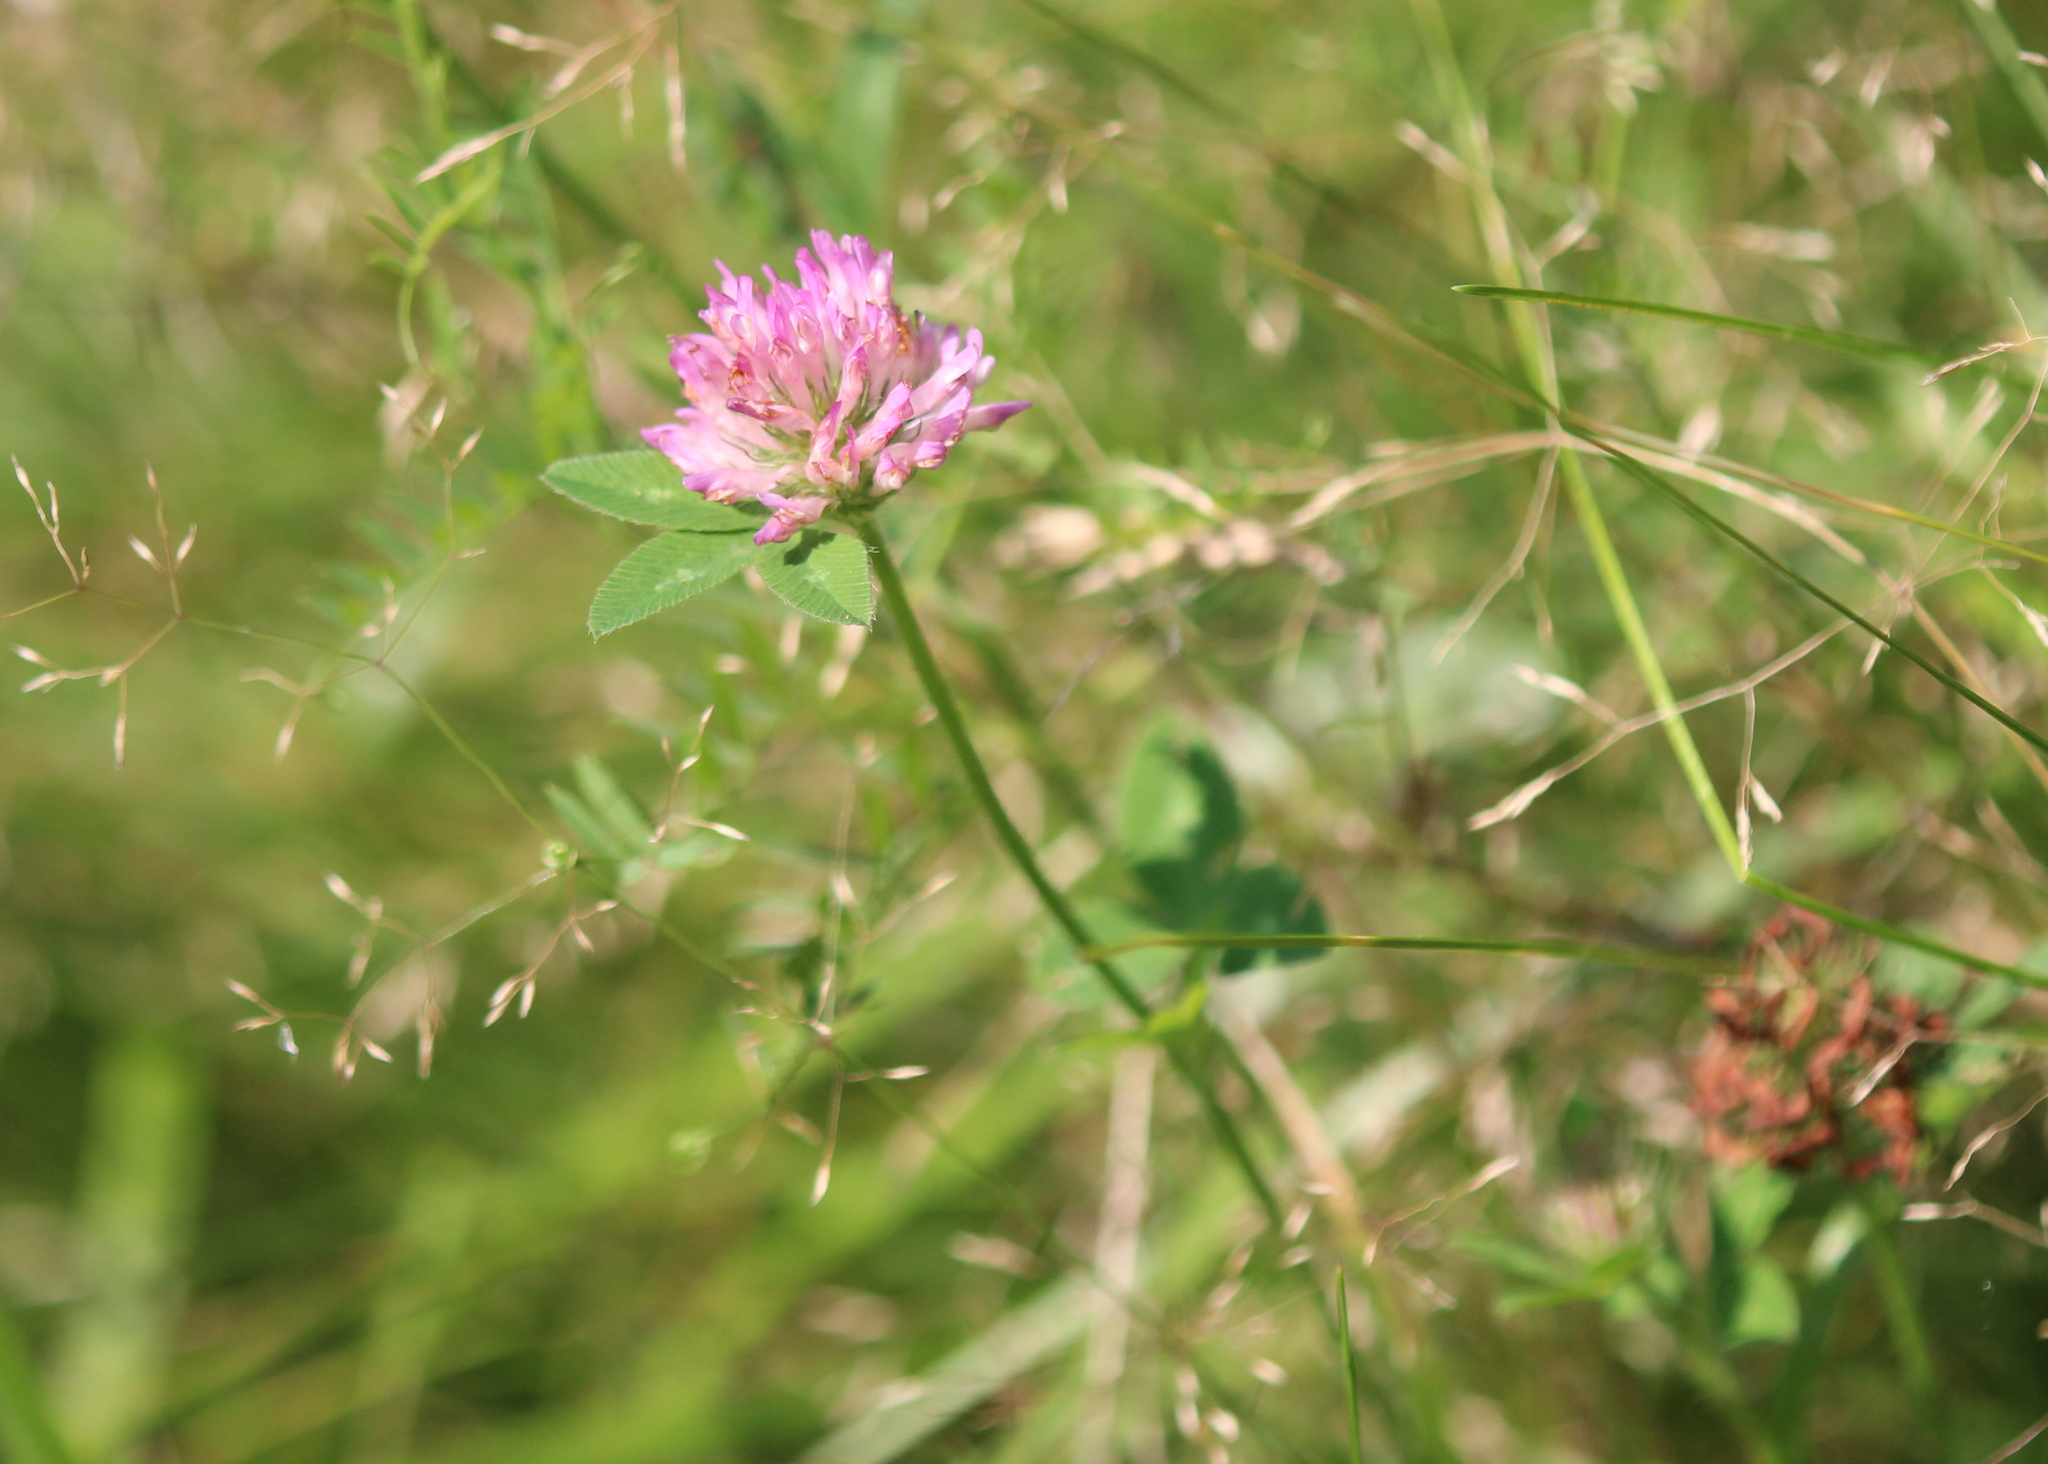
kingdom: Plantae
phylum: Tracheophyta
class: Magnoliopsida
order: Fabales
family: Fabaceae
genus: Trifolium
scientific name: Trifolium pratense
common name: Red clover
